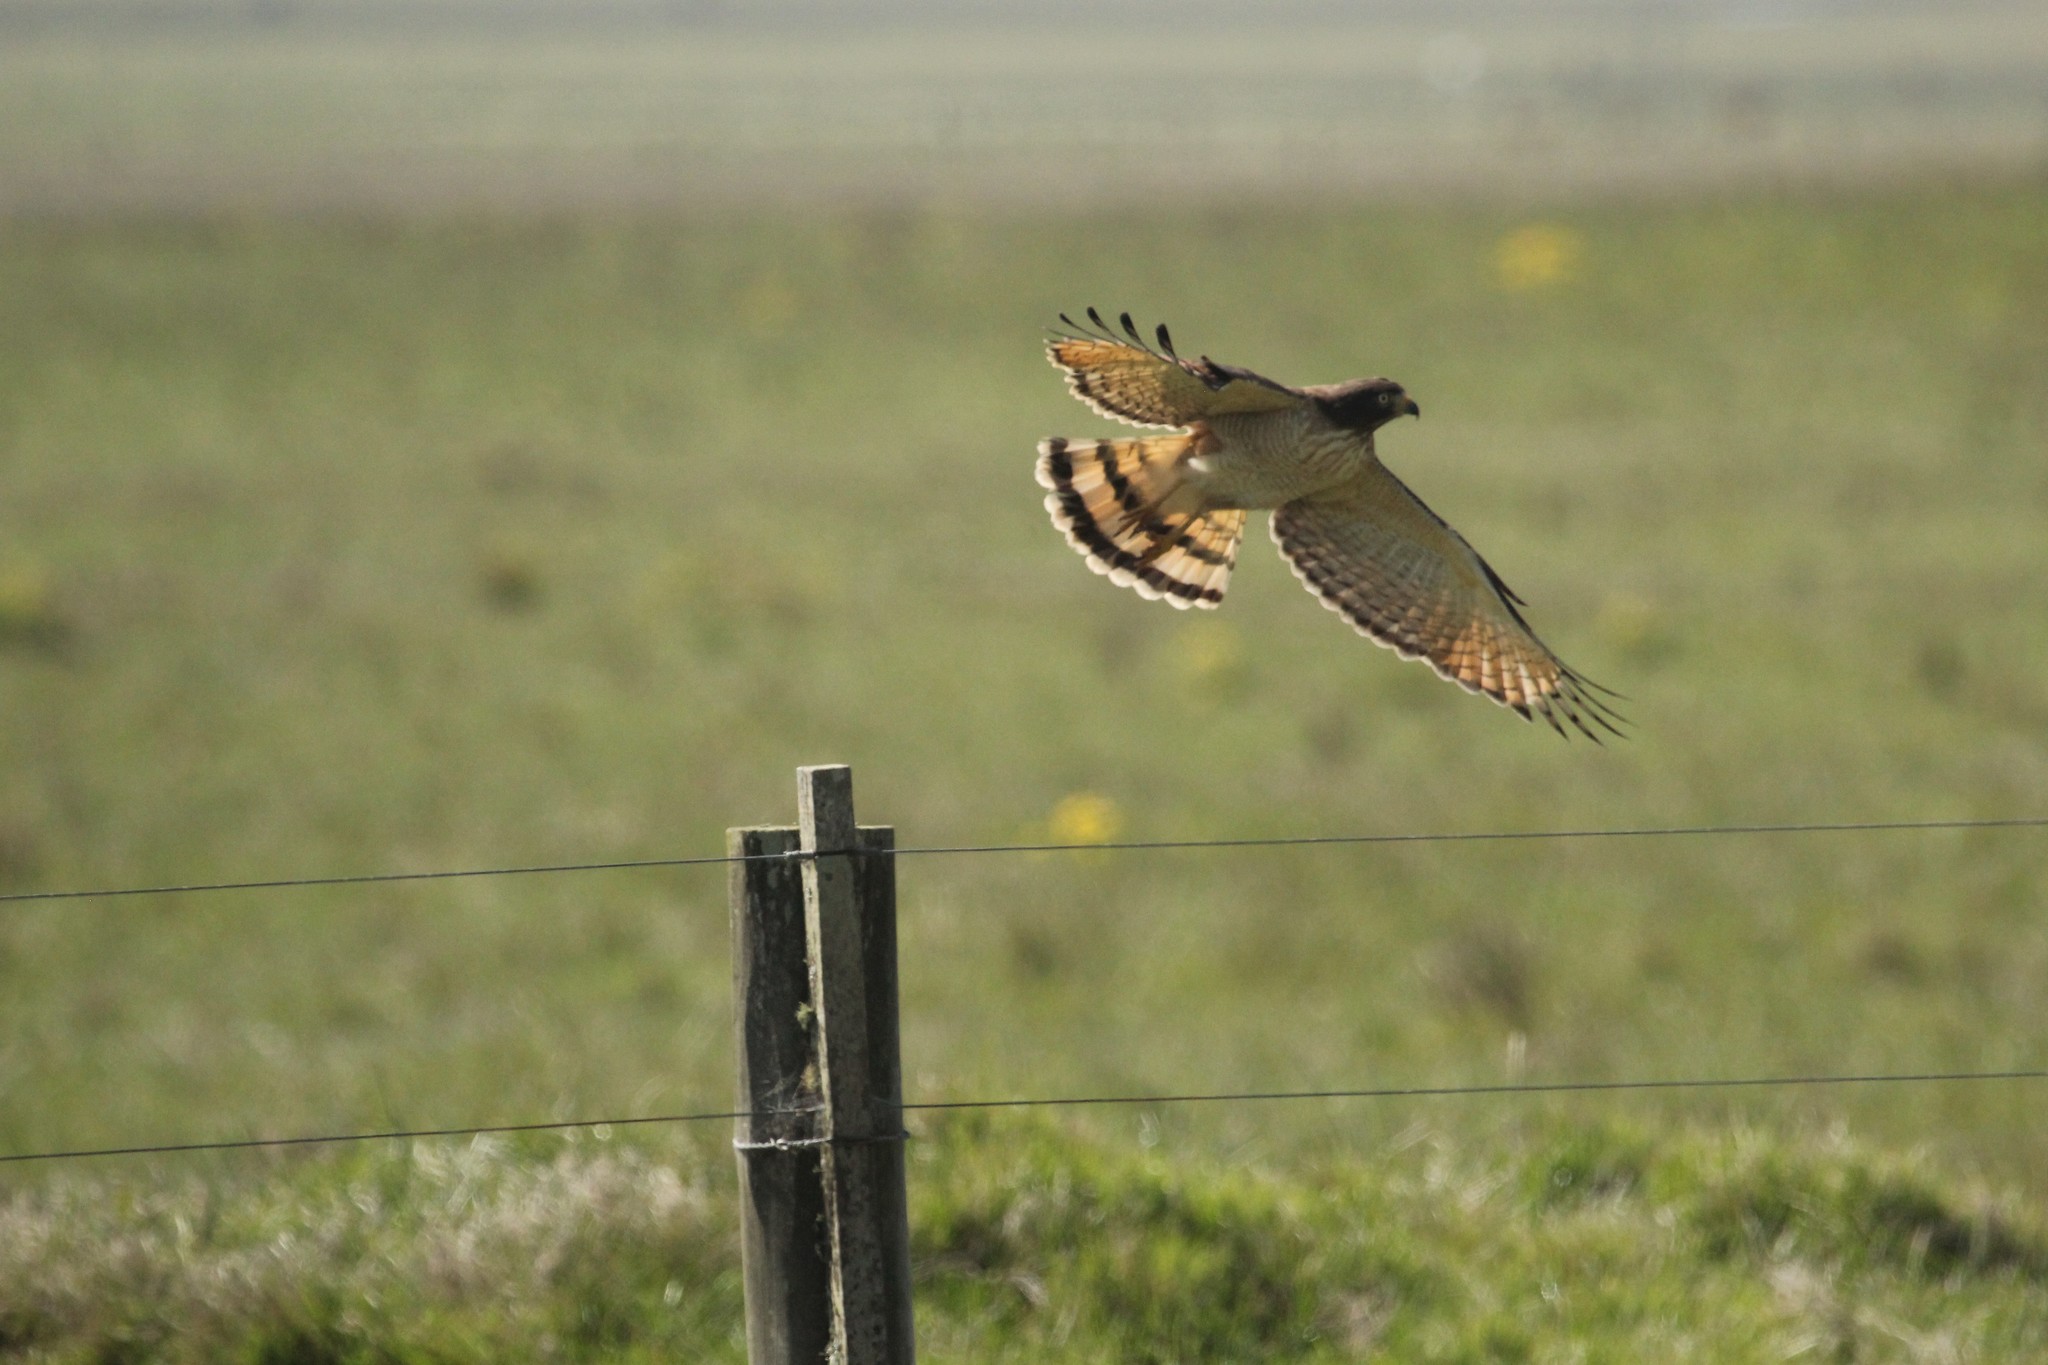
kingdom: Animalia
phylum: Chordata
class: Aves
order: Accipitriformes
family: Accipitridae
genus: Rupornis
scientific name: Rupornis magnirostris
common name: Roadside hawk
